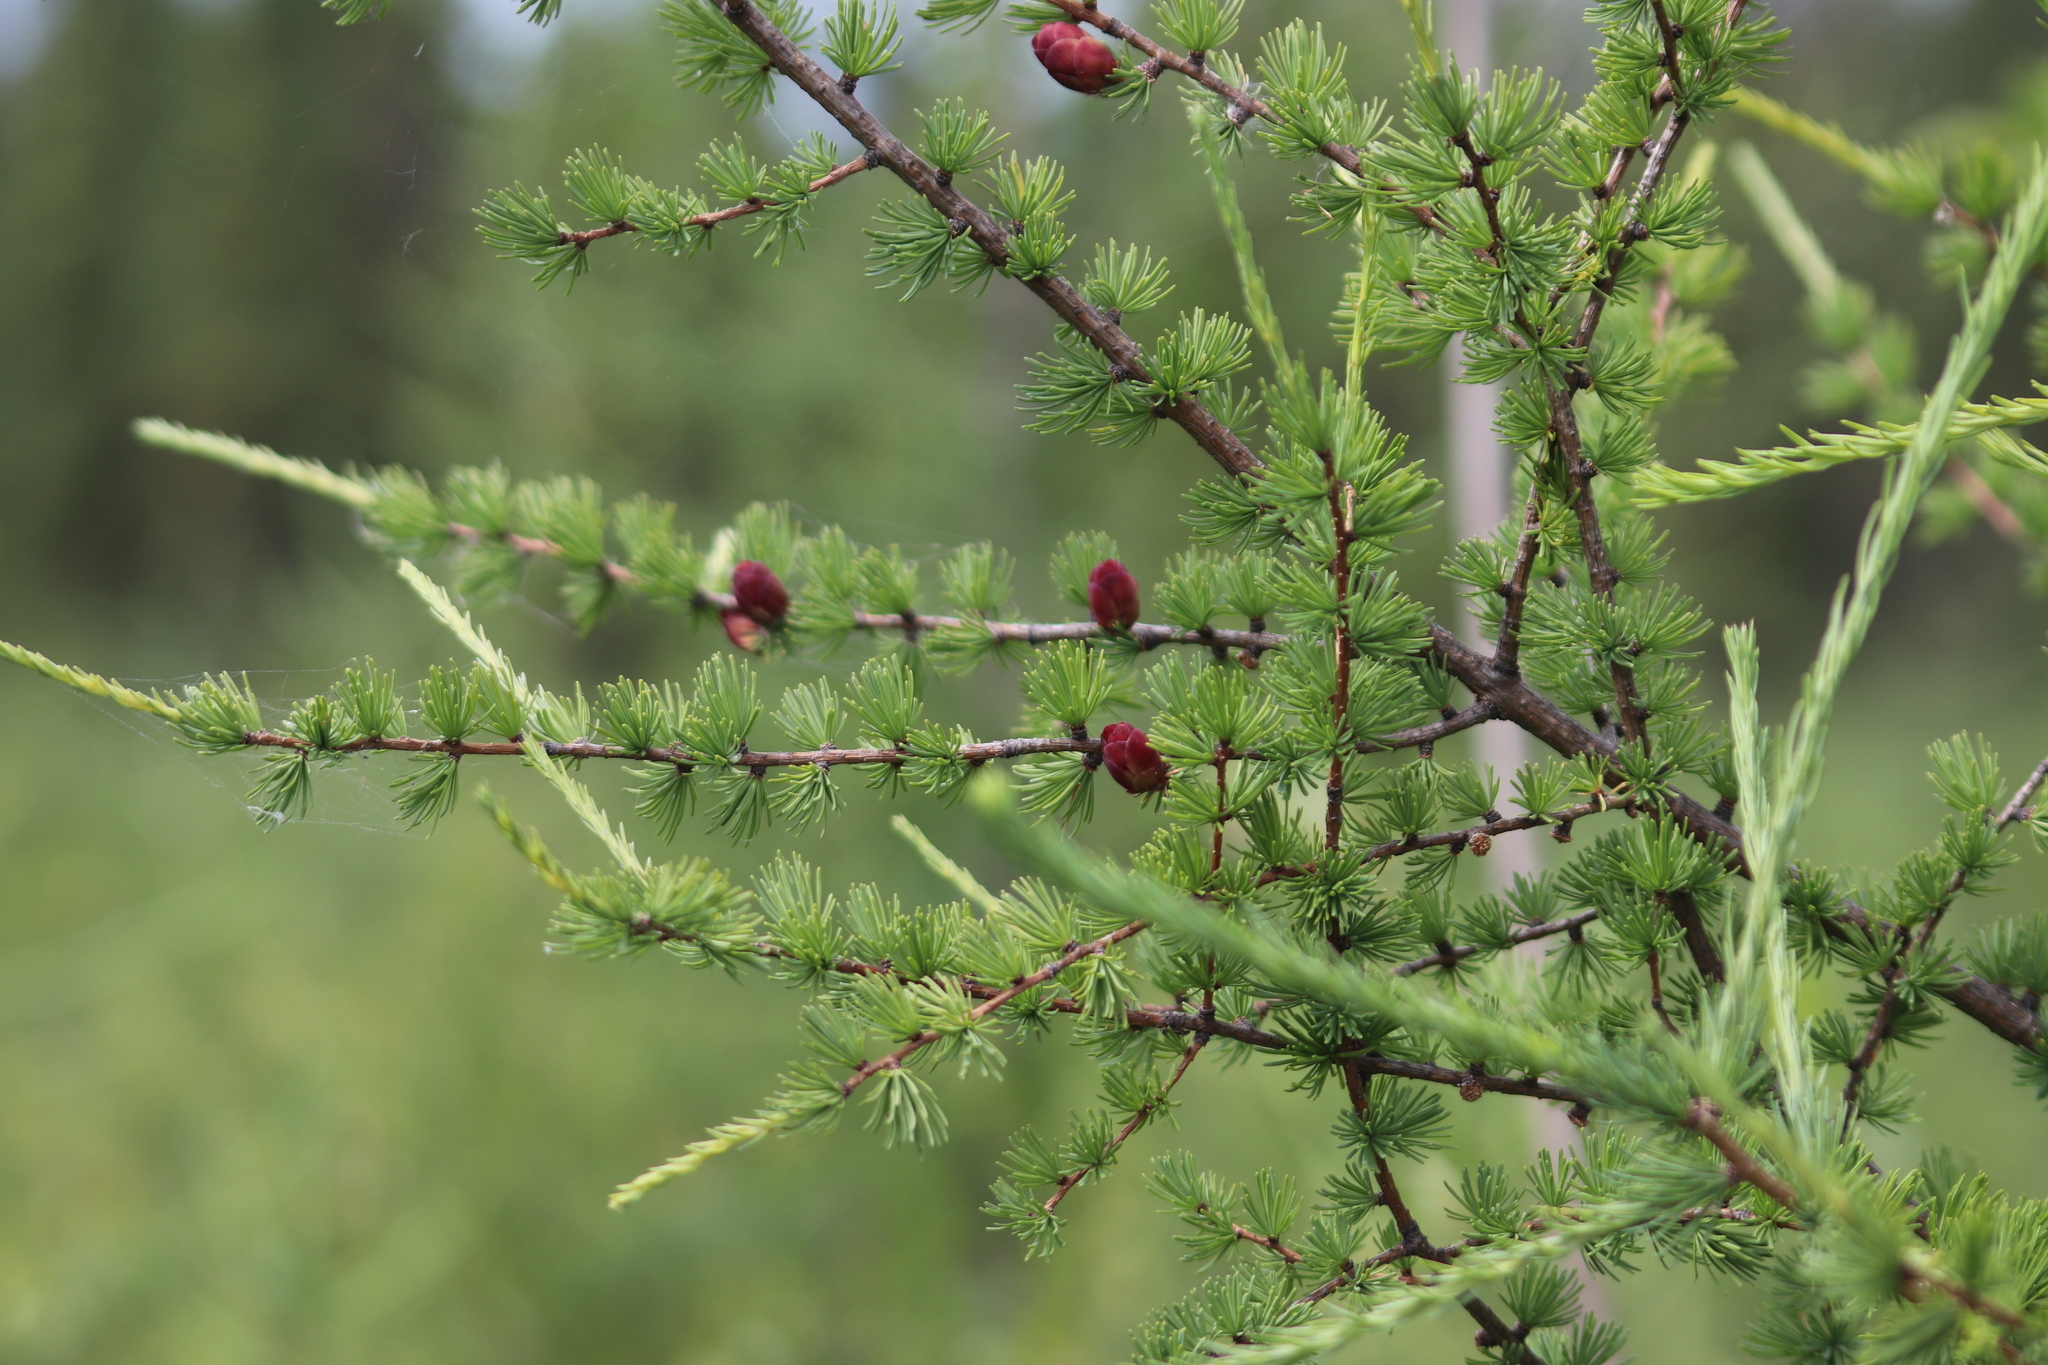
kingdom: Plantae
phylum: Tracheophyta
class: Pinopsida
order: Pinales
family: Pinaceae
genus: Larix
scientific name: Larix laricina
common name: American larch
